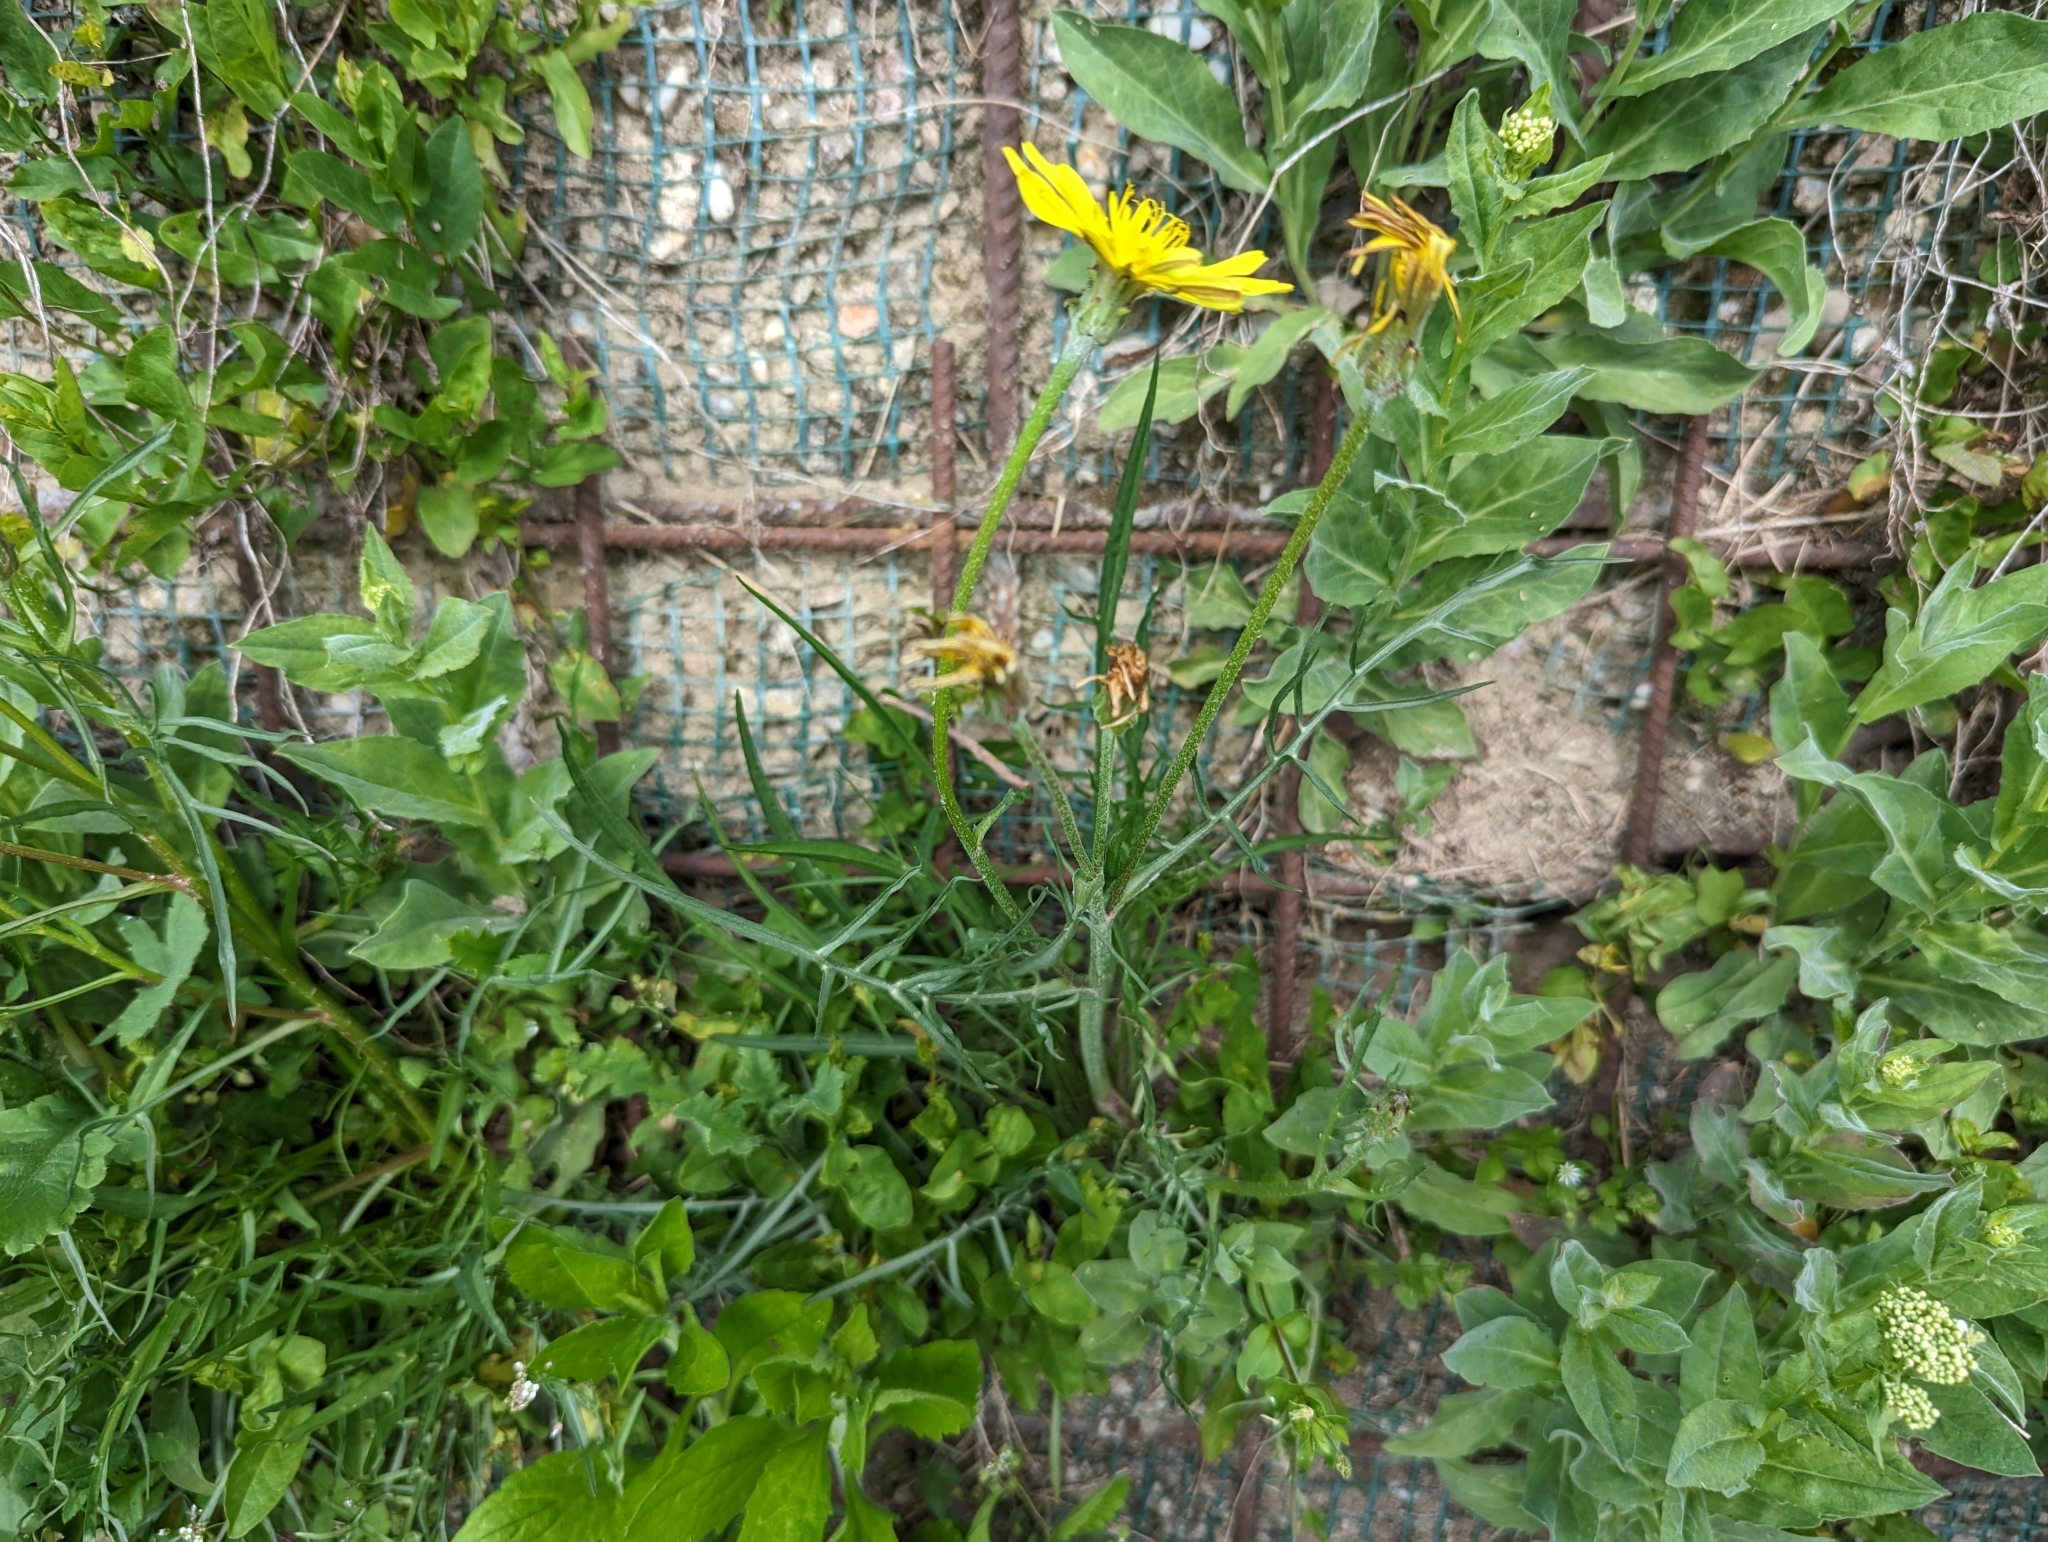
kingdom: Plantae
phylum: Tracheophyta
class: Magnoliopsida
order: Asterales
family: Asteraceae
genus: Scorzonera
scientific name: Scorzonera cana
